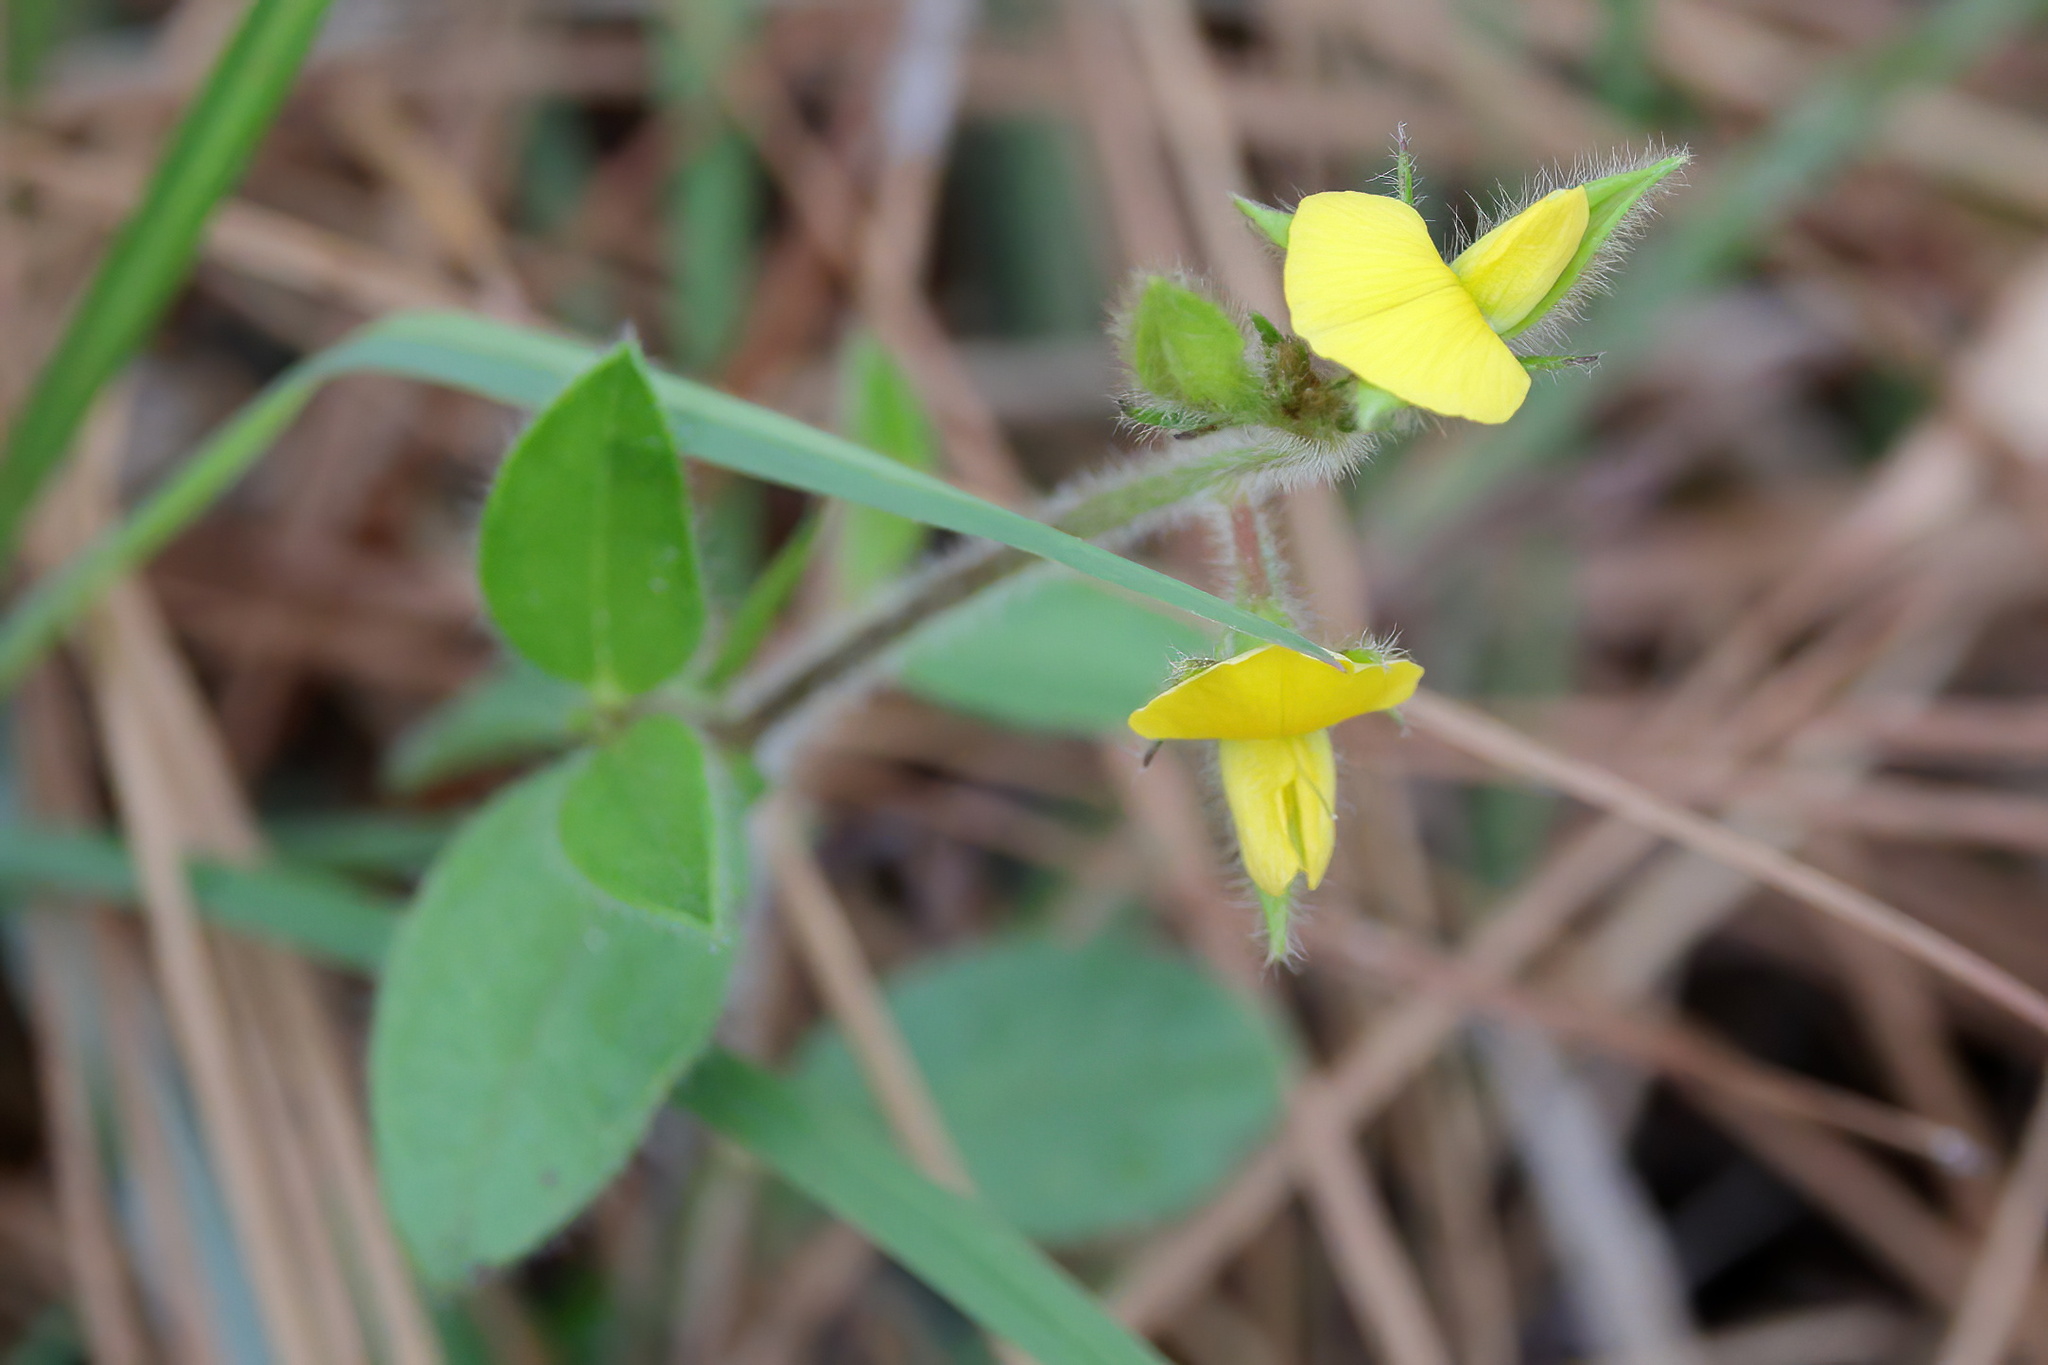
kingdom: Plantae
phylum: Tracheophyta
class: Magnoliopsida
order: Fabales
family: Fabaceae
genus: Crotalaria
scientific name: Crotalaria rotundifolia
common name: Prostrate rattlebox
